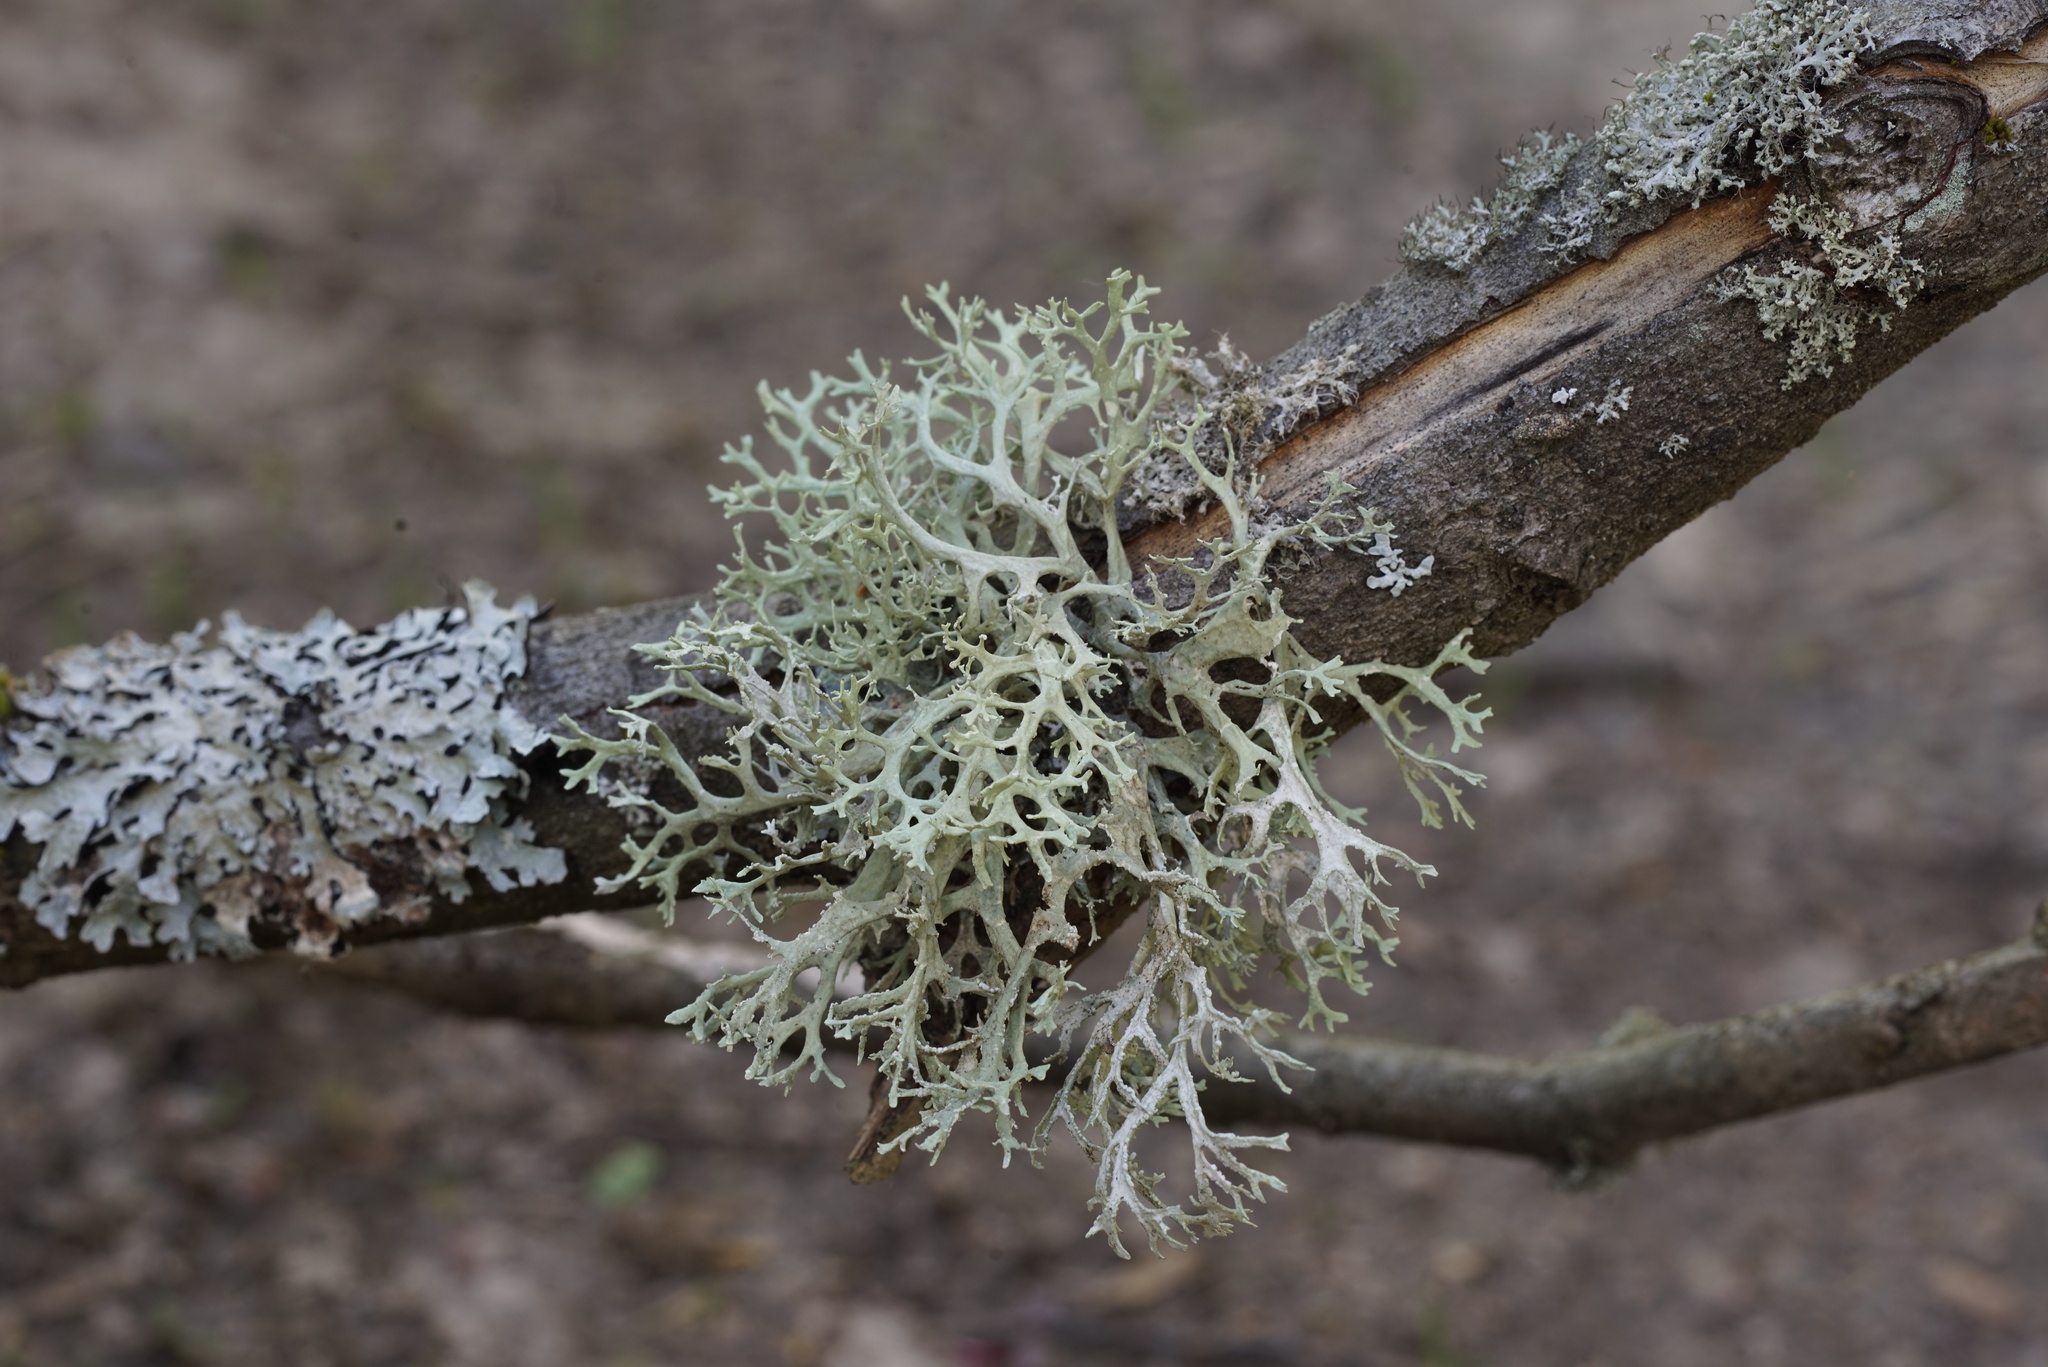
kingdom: Fungi
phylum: Ascomycota
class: Lecanoromycetes
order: Lecanorales
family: Parmeliaceae
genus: Evernia
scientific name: Evernia prunastri
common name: Oak moss
